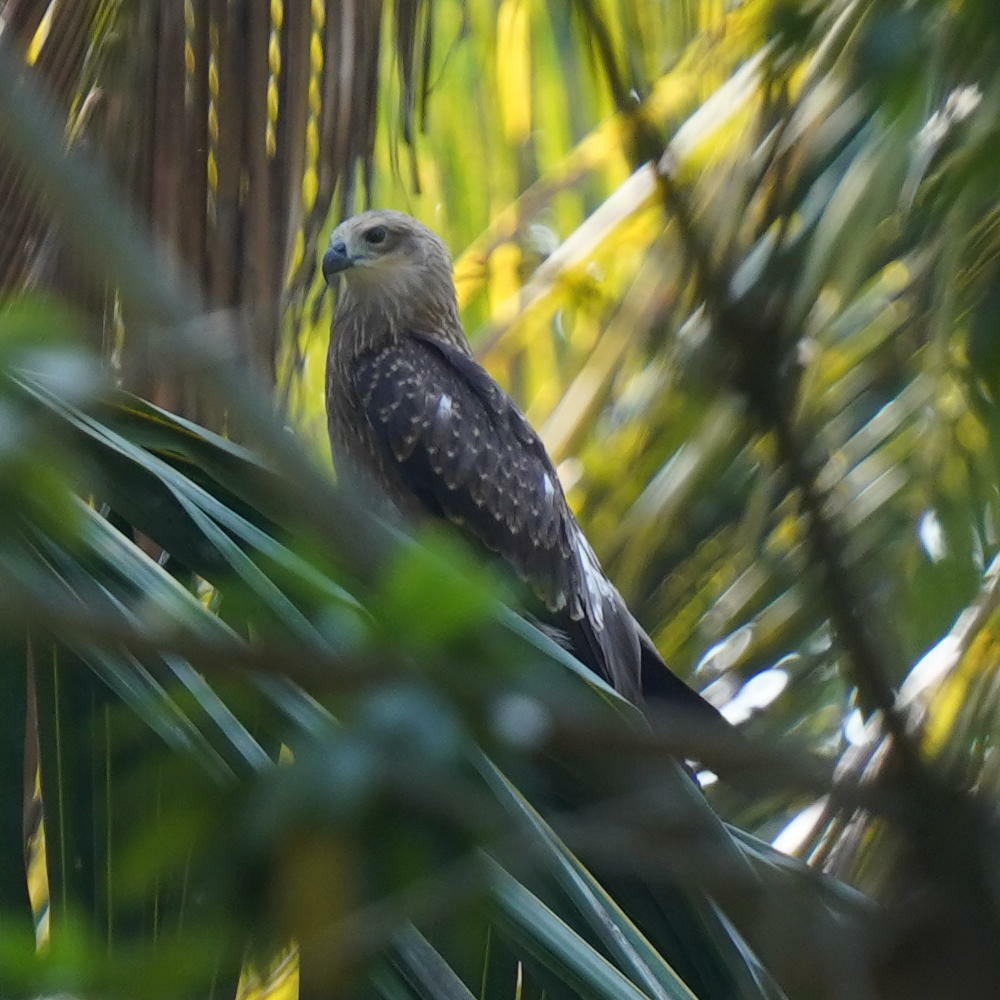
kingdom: Animalia
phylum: Chordata
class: Aves
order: Accipitriformes
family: Accipitridae
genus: Haliastur
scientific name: Haliastur indus
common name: Brahminy kite
